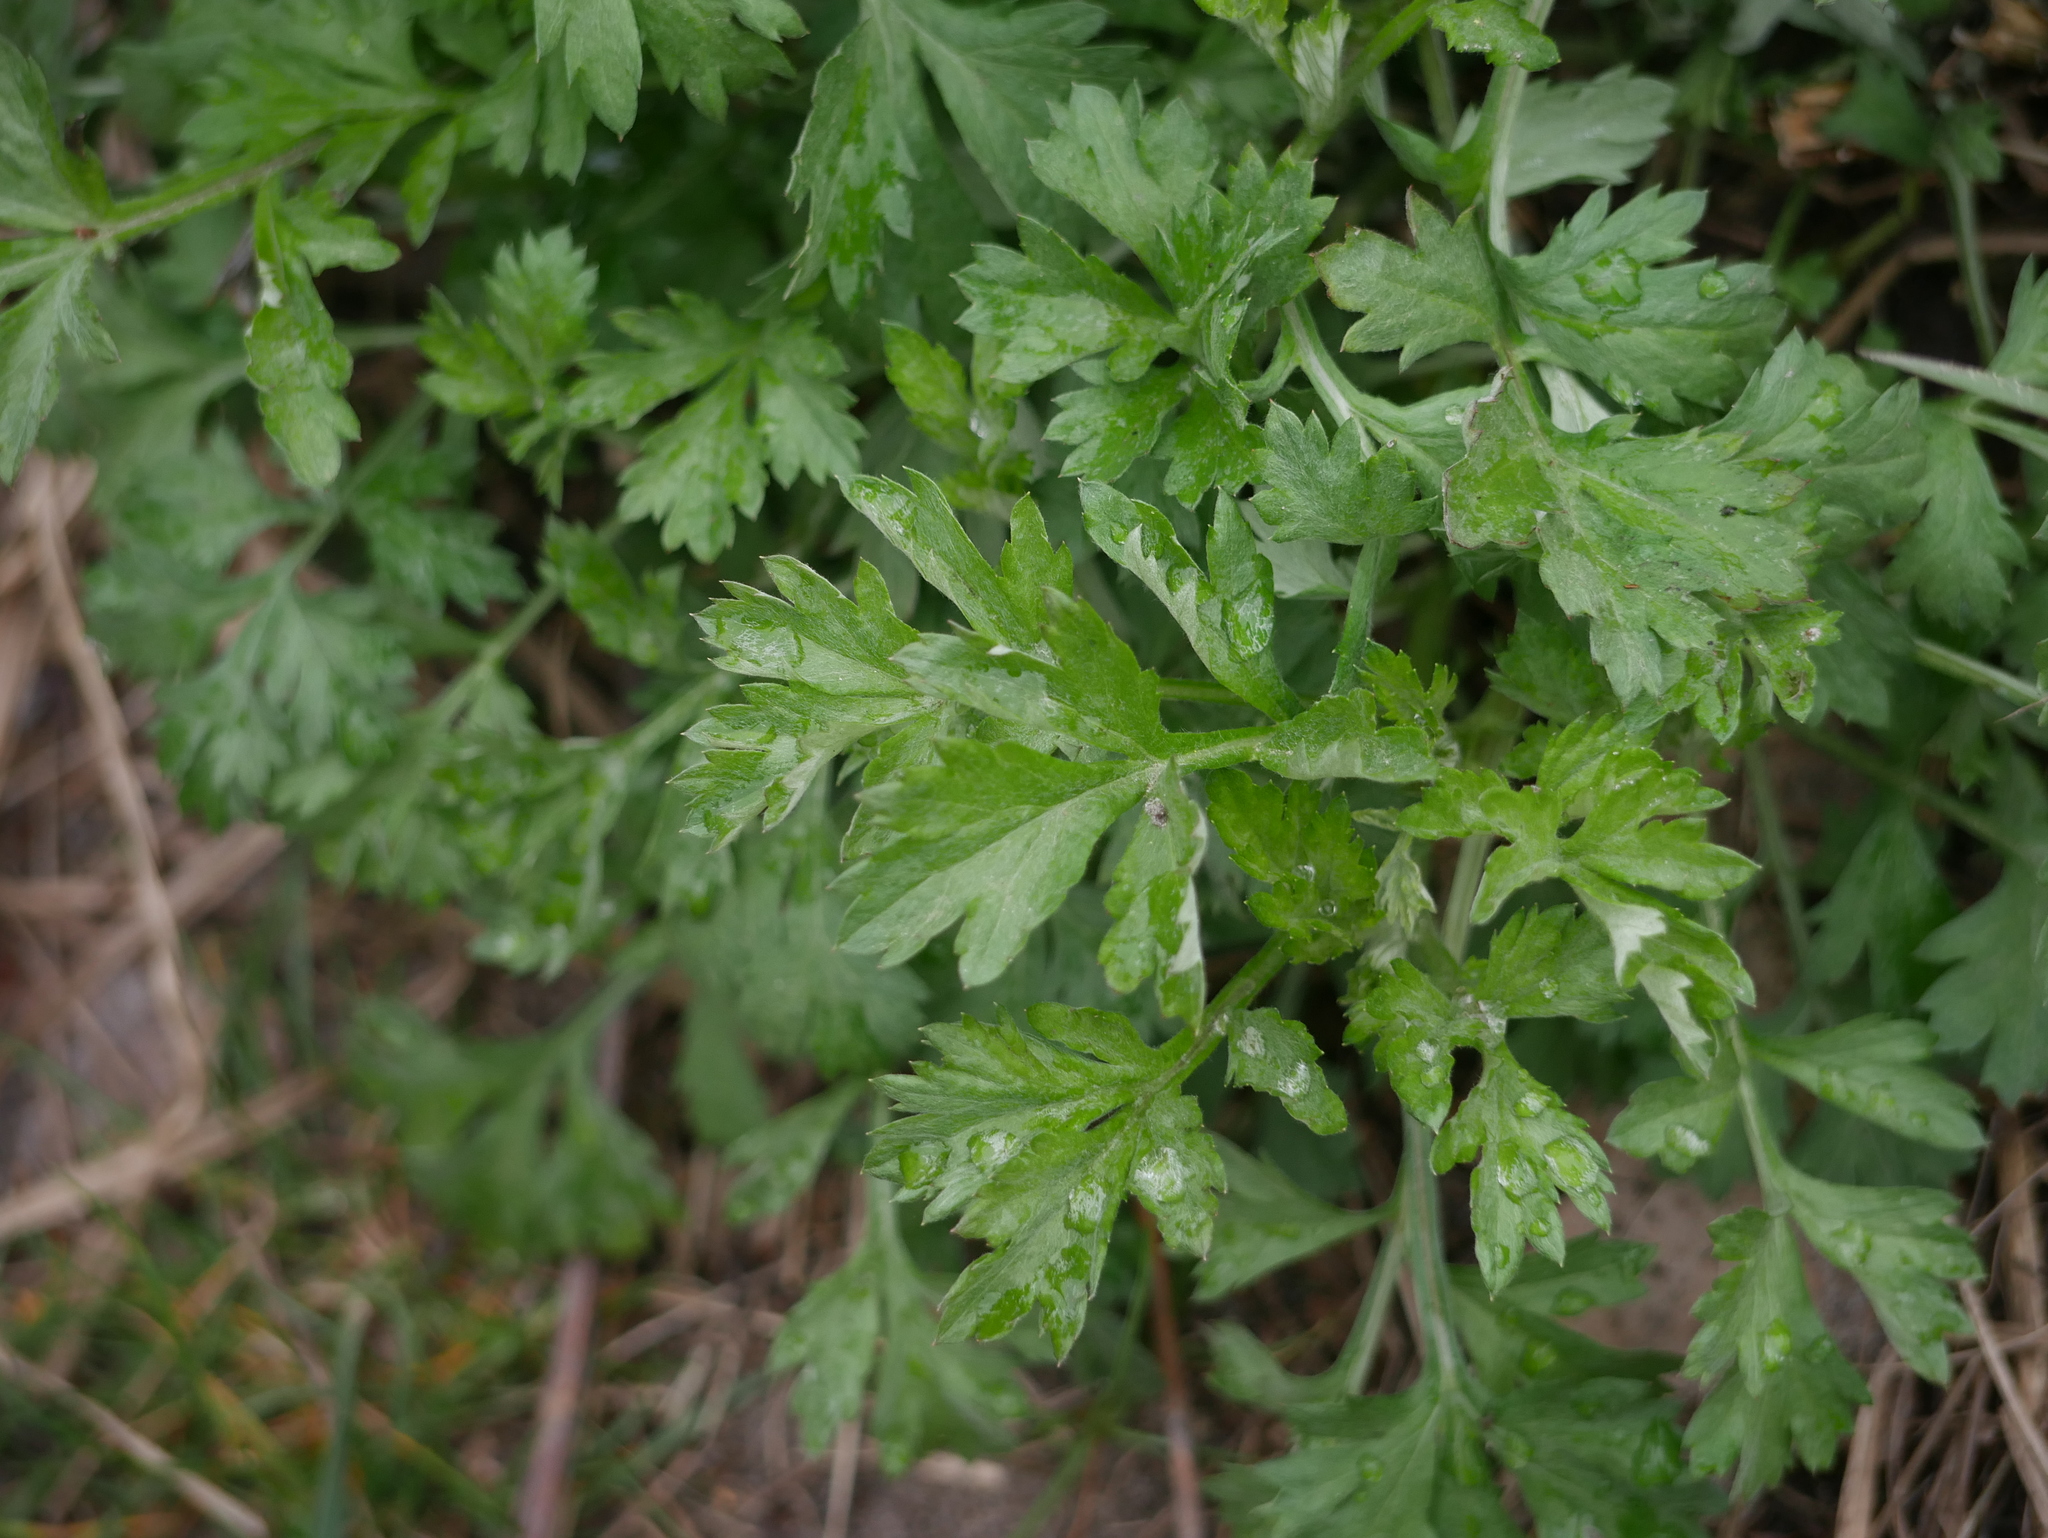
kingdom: Plantae
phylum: Tracheophyta
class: Magnoliopsida
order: Asterales
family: Asteraceae
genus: Artemisia
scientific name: Artemisia vulgaris
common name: Mugwort
